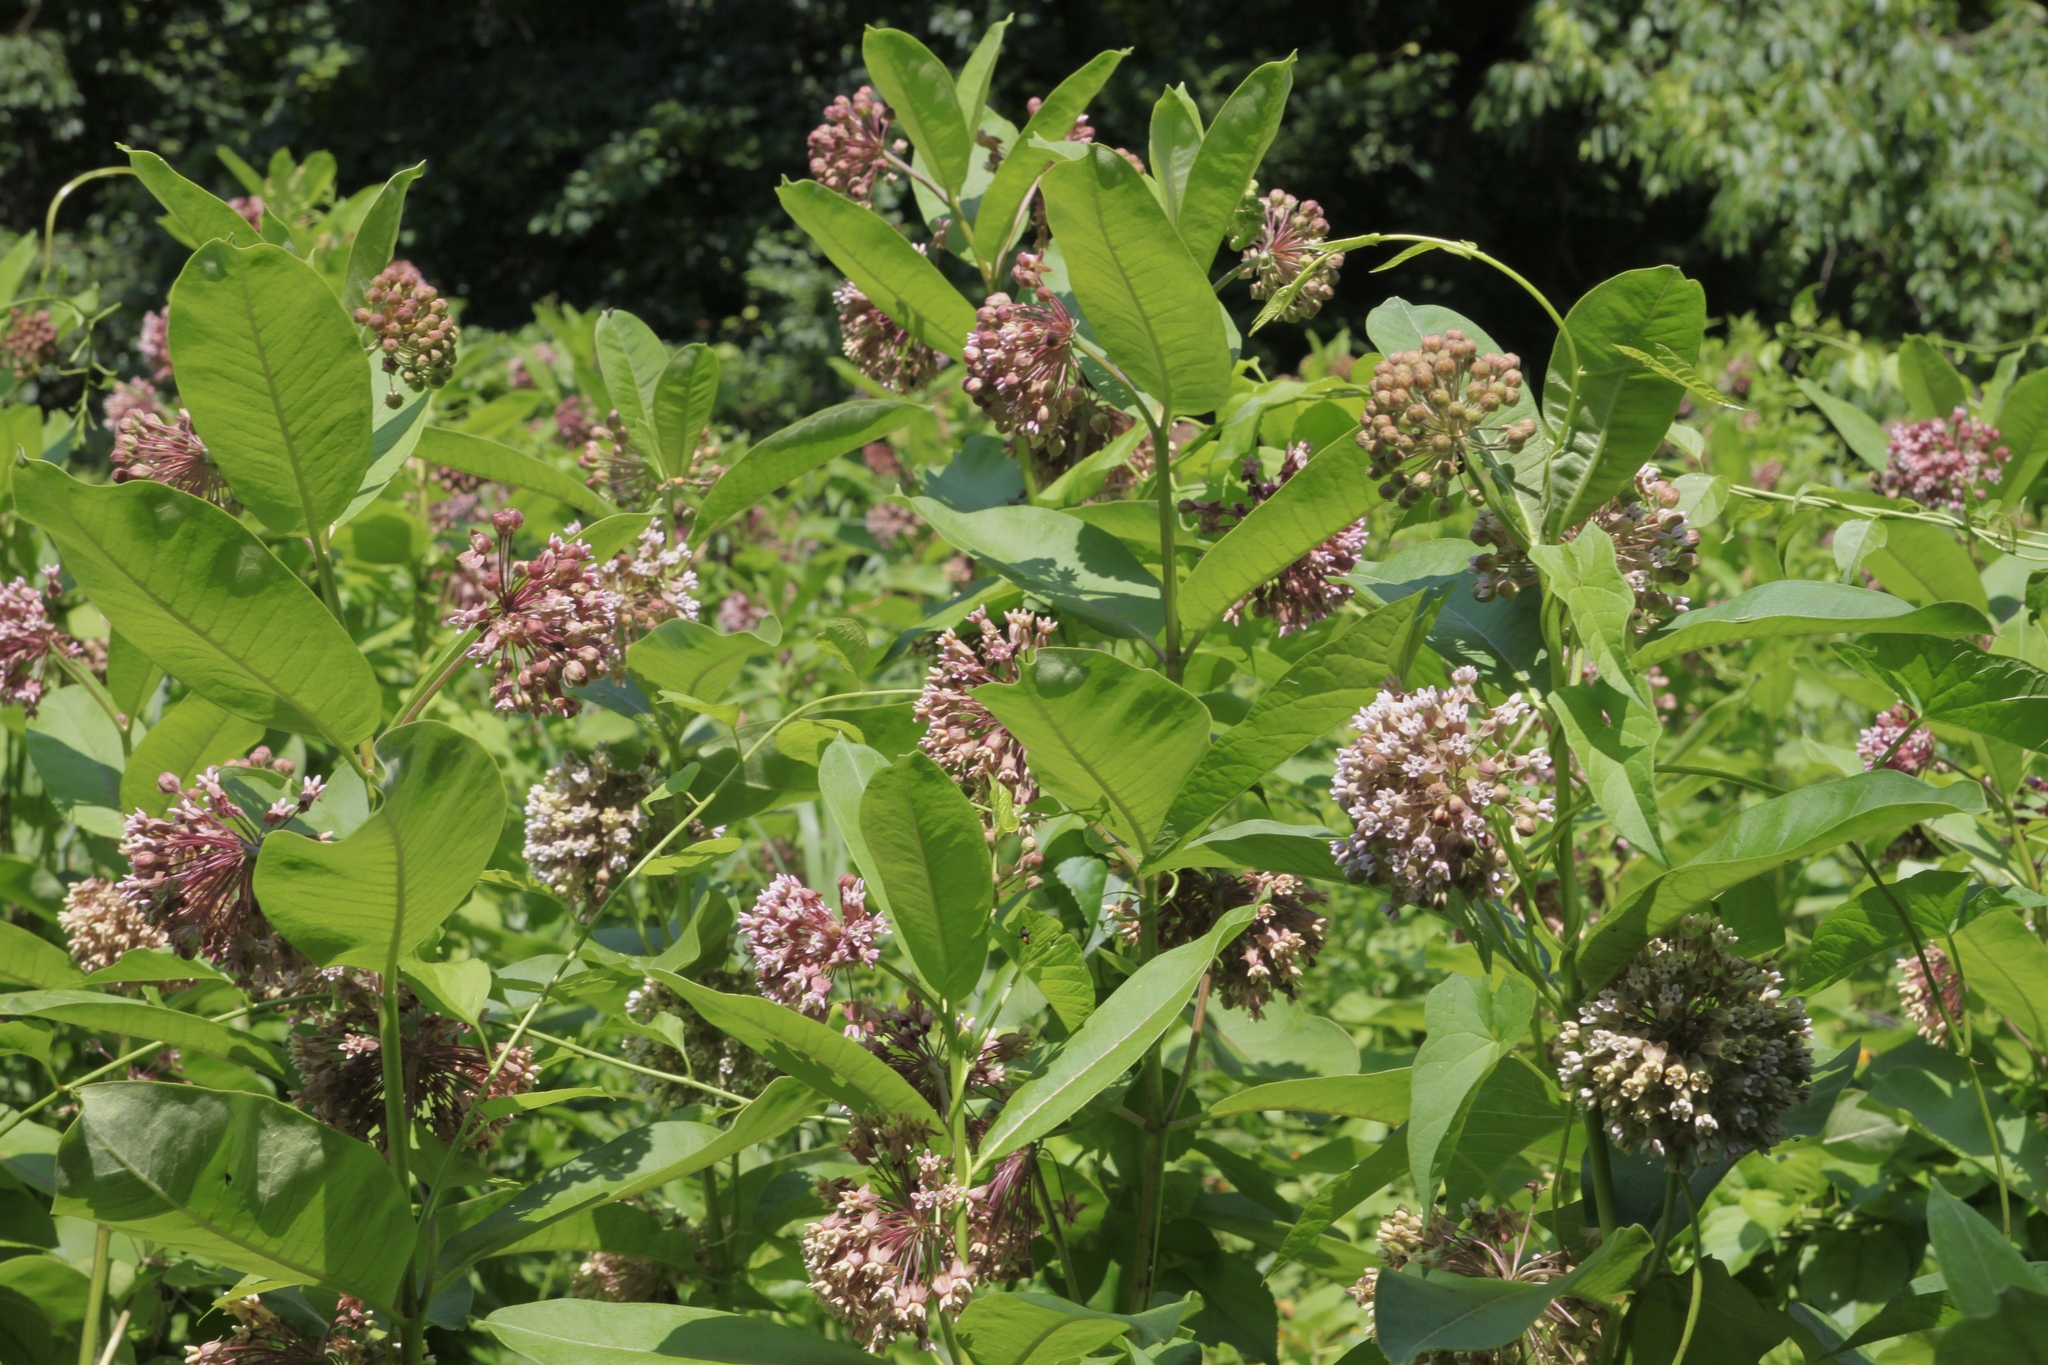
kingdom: Plantae
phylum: Tracheophyta
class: Magnoliopsida
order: Gentianales
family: Apocynaceae
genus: Asclepias
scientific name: Asclepias syriaca
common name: Common milkweed
